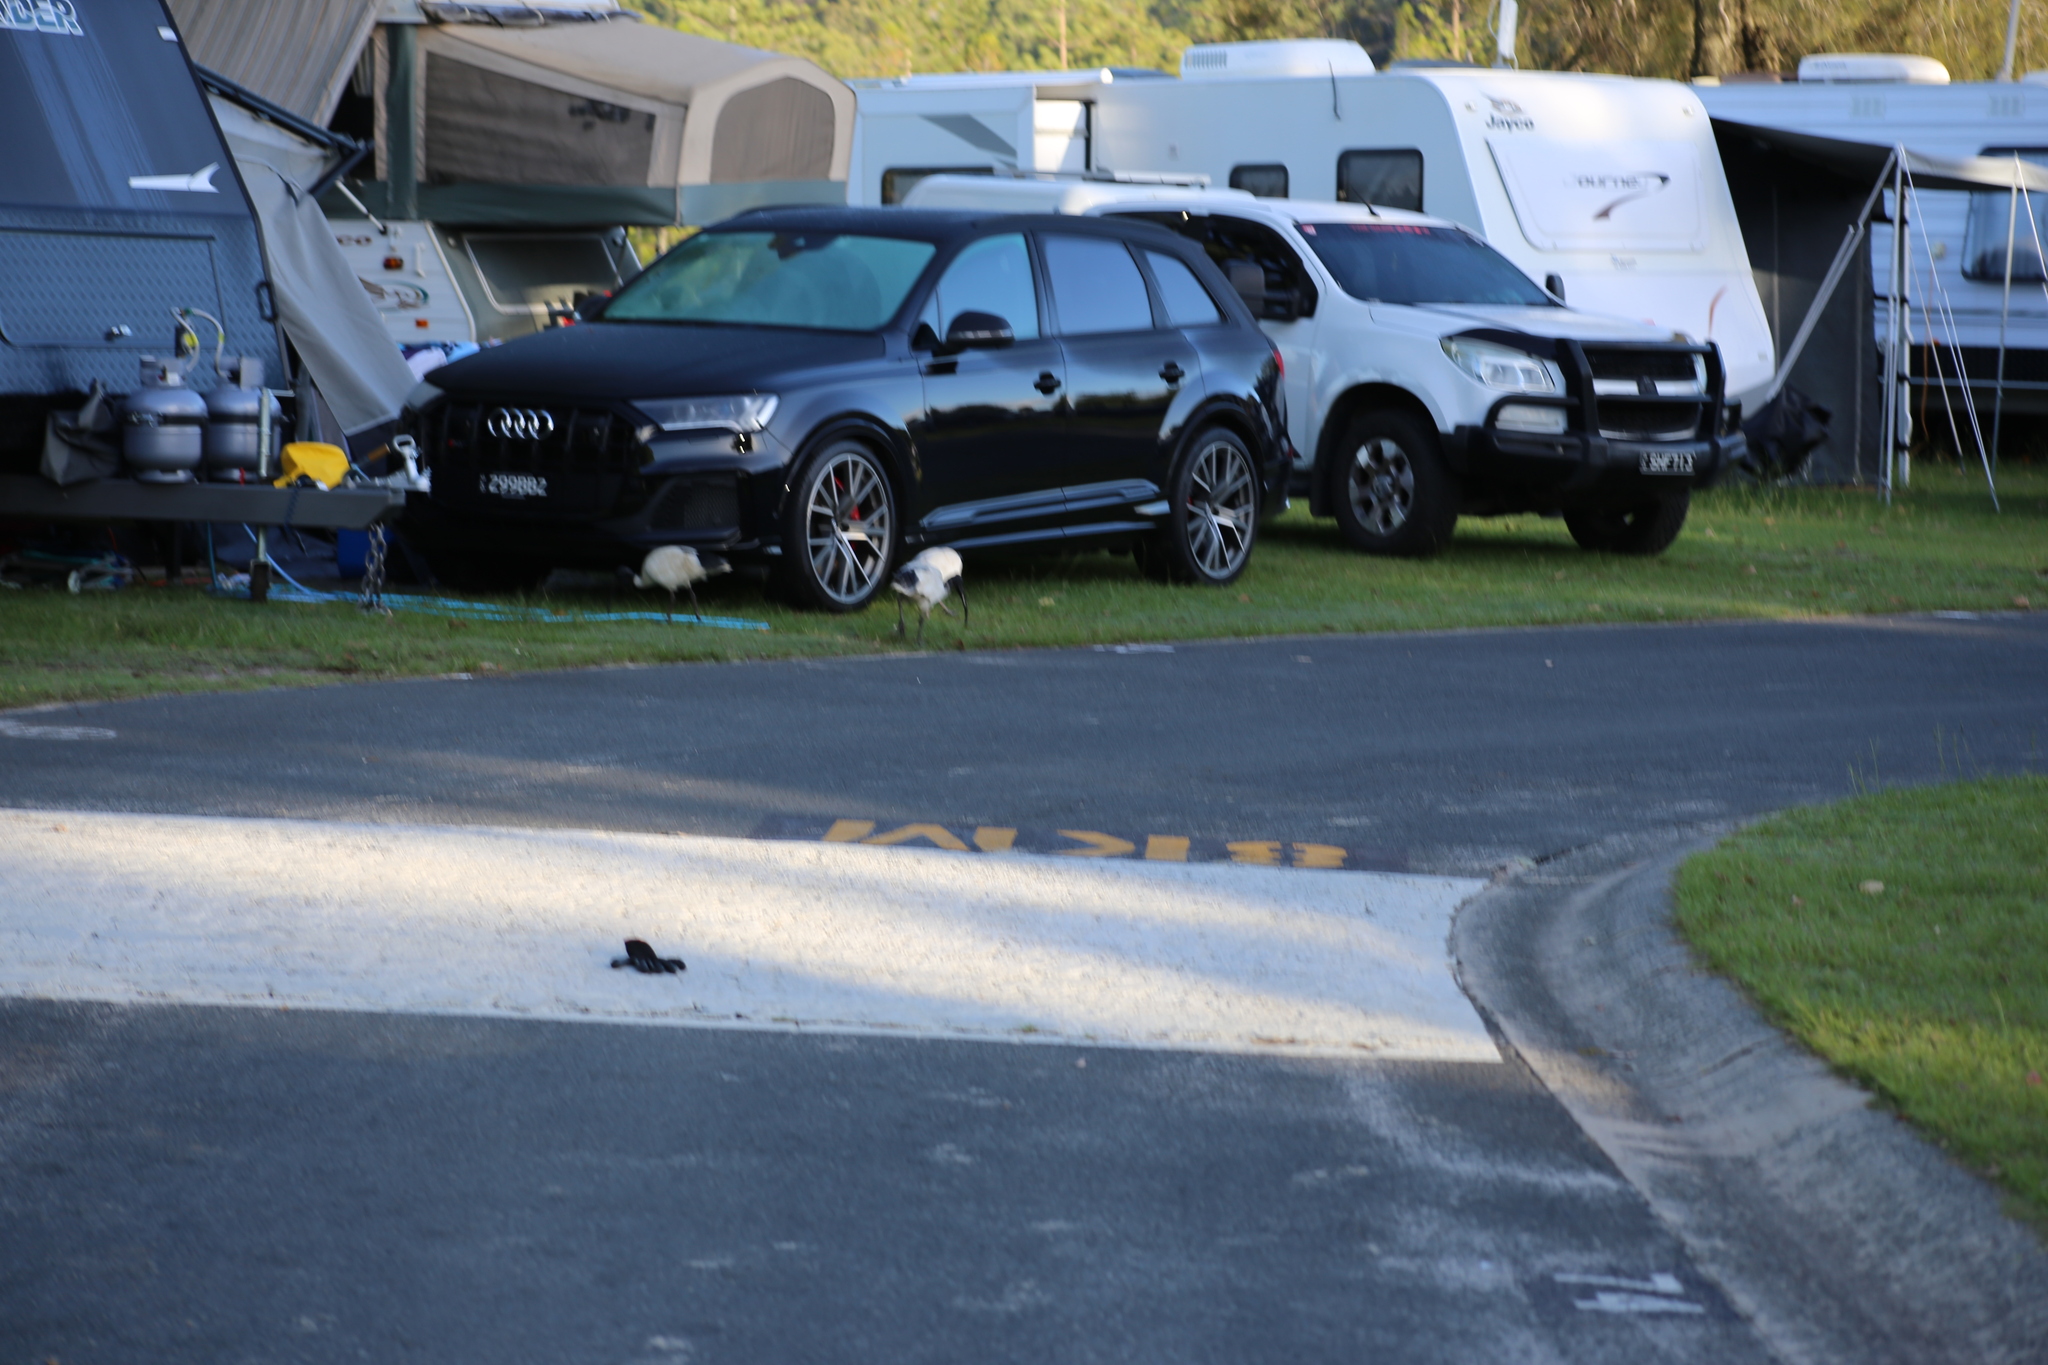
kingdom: Animalia
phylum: Chordata
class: Aves
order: Pelecaniformes
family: Threskiornithidae
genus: Threskiornis
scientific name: Threskiornis molucca
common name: Australian white ibis
